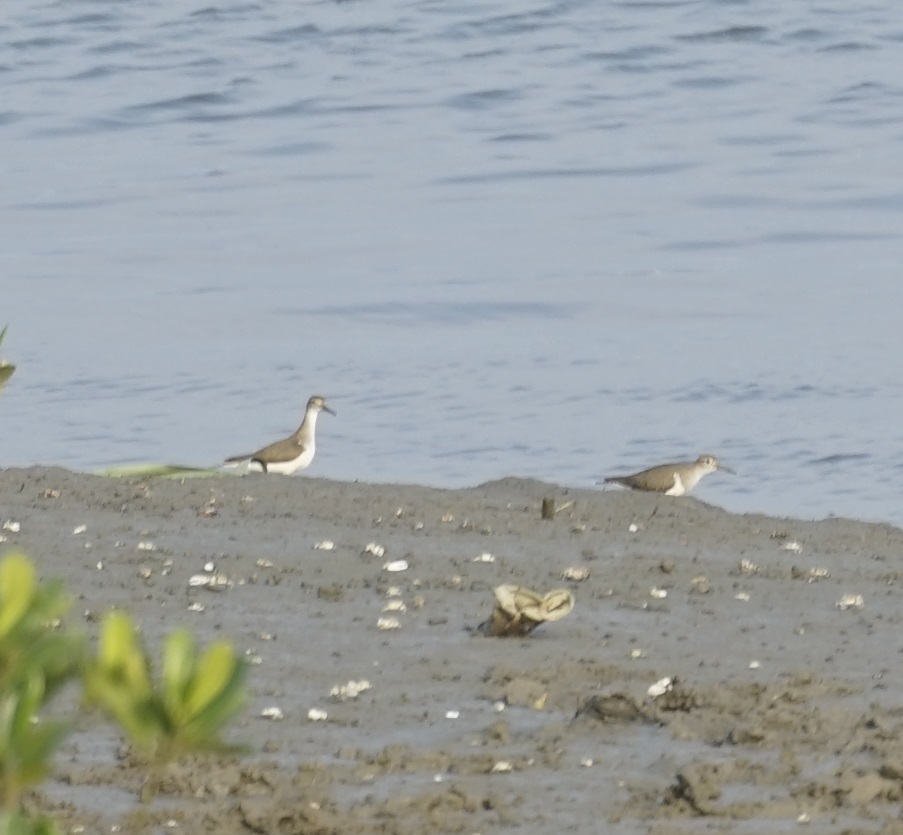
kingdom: Animalia
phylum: Chordata
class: Aves
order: Charadriiformes
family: Scolopacidae
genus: Actitis
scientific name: Actitis hypoleucos
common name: Common sandpiper
